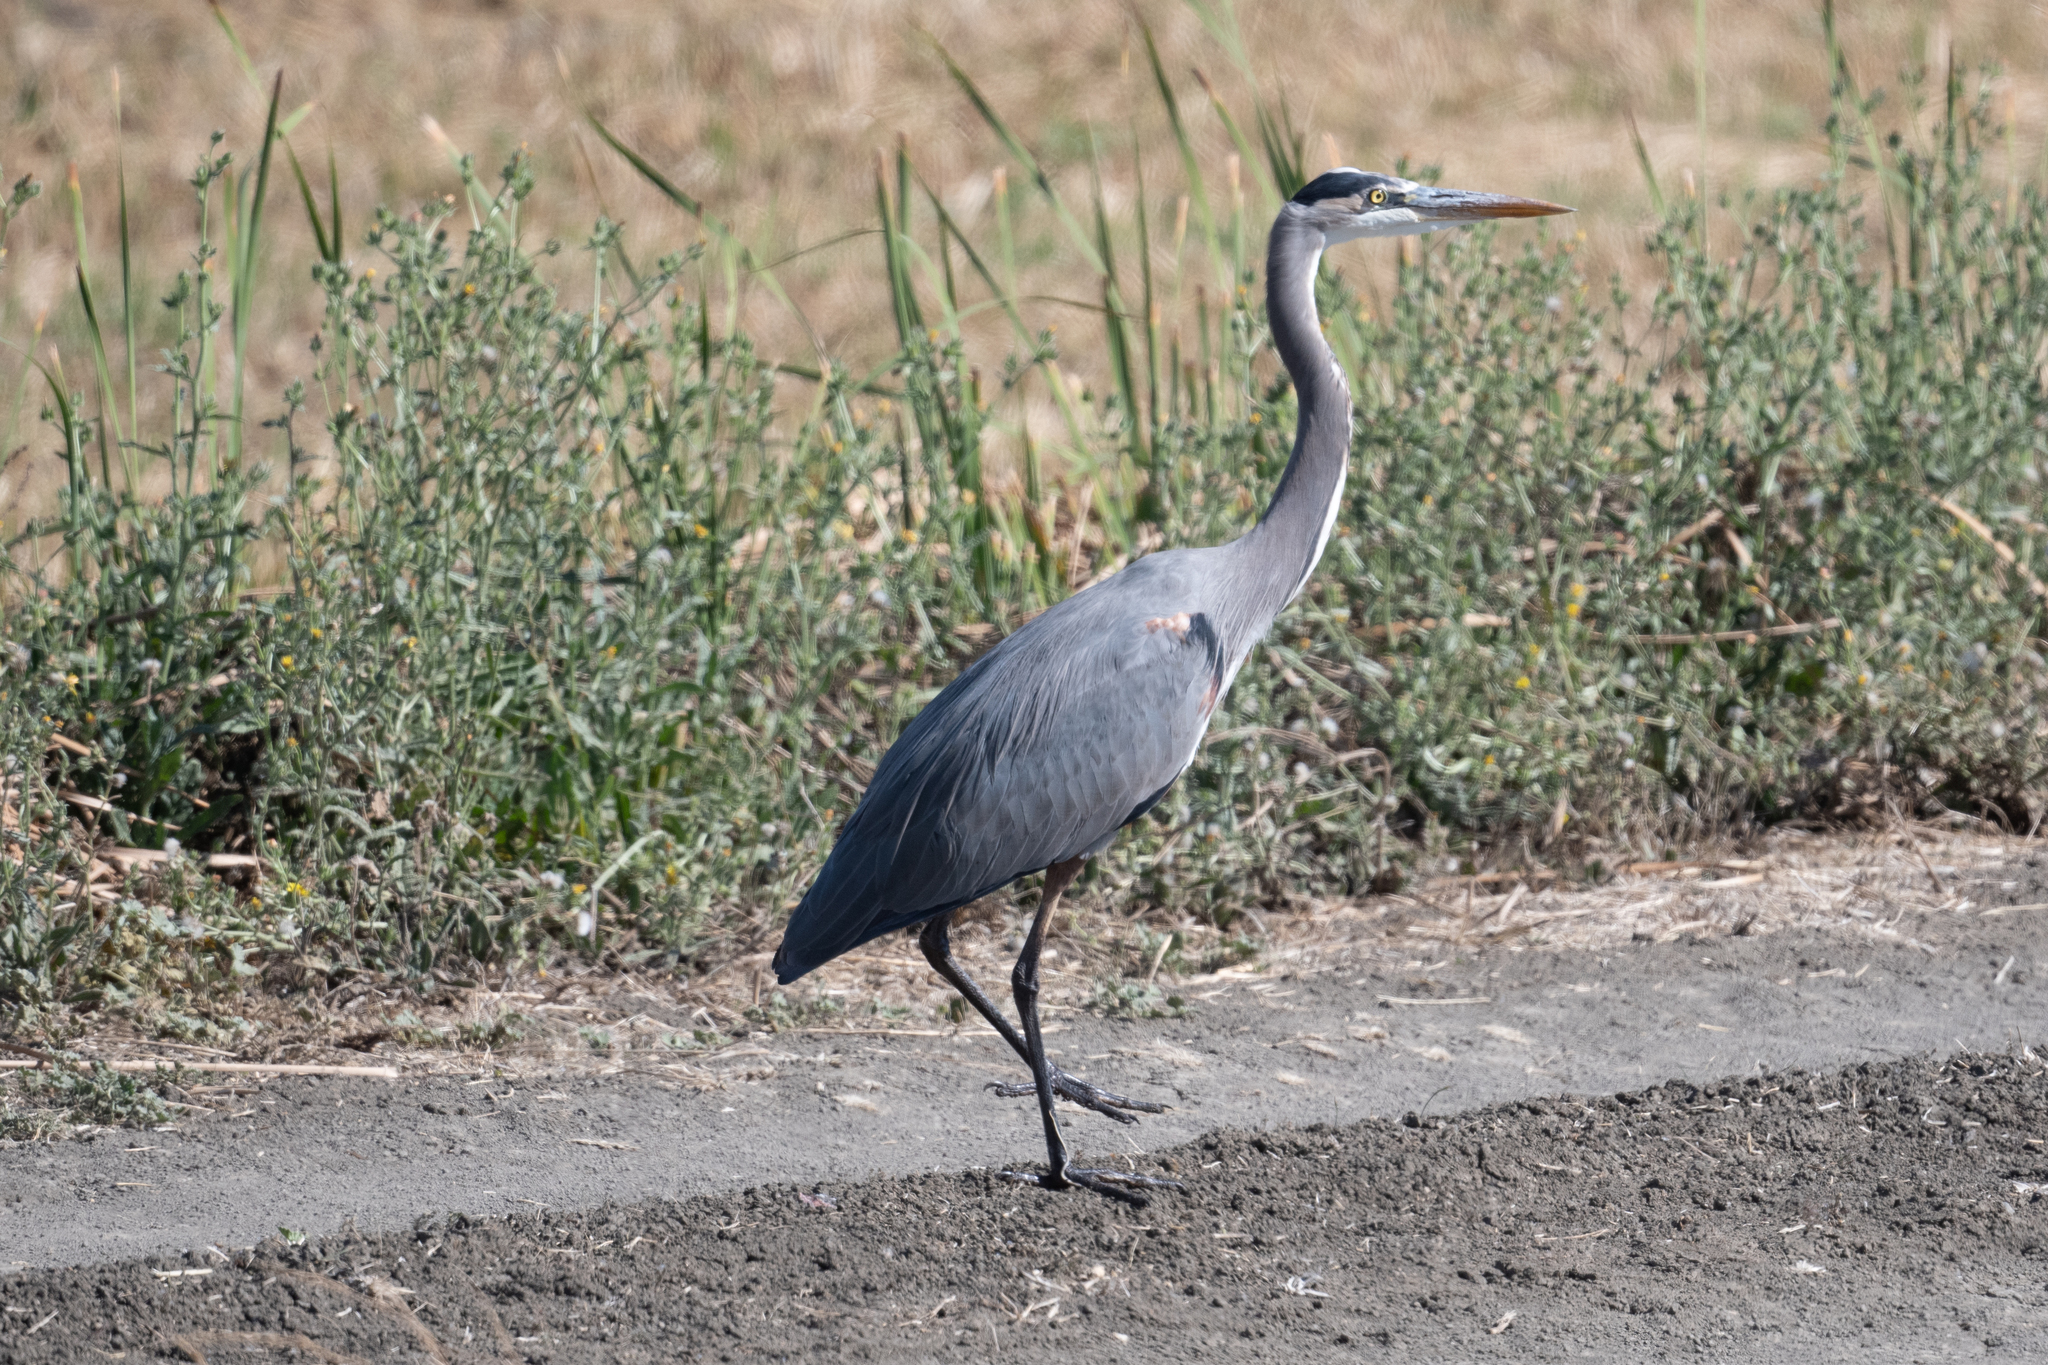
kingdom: Animalia
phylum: Chordata
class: Aves
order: Pelecaniformes
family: Ardeidae
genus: Ardea
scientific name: Ardea herodias
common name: Great blue heron
